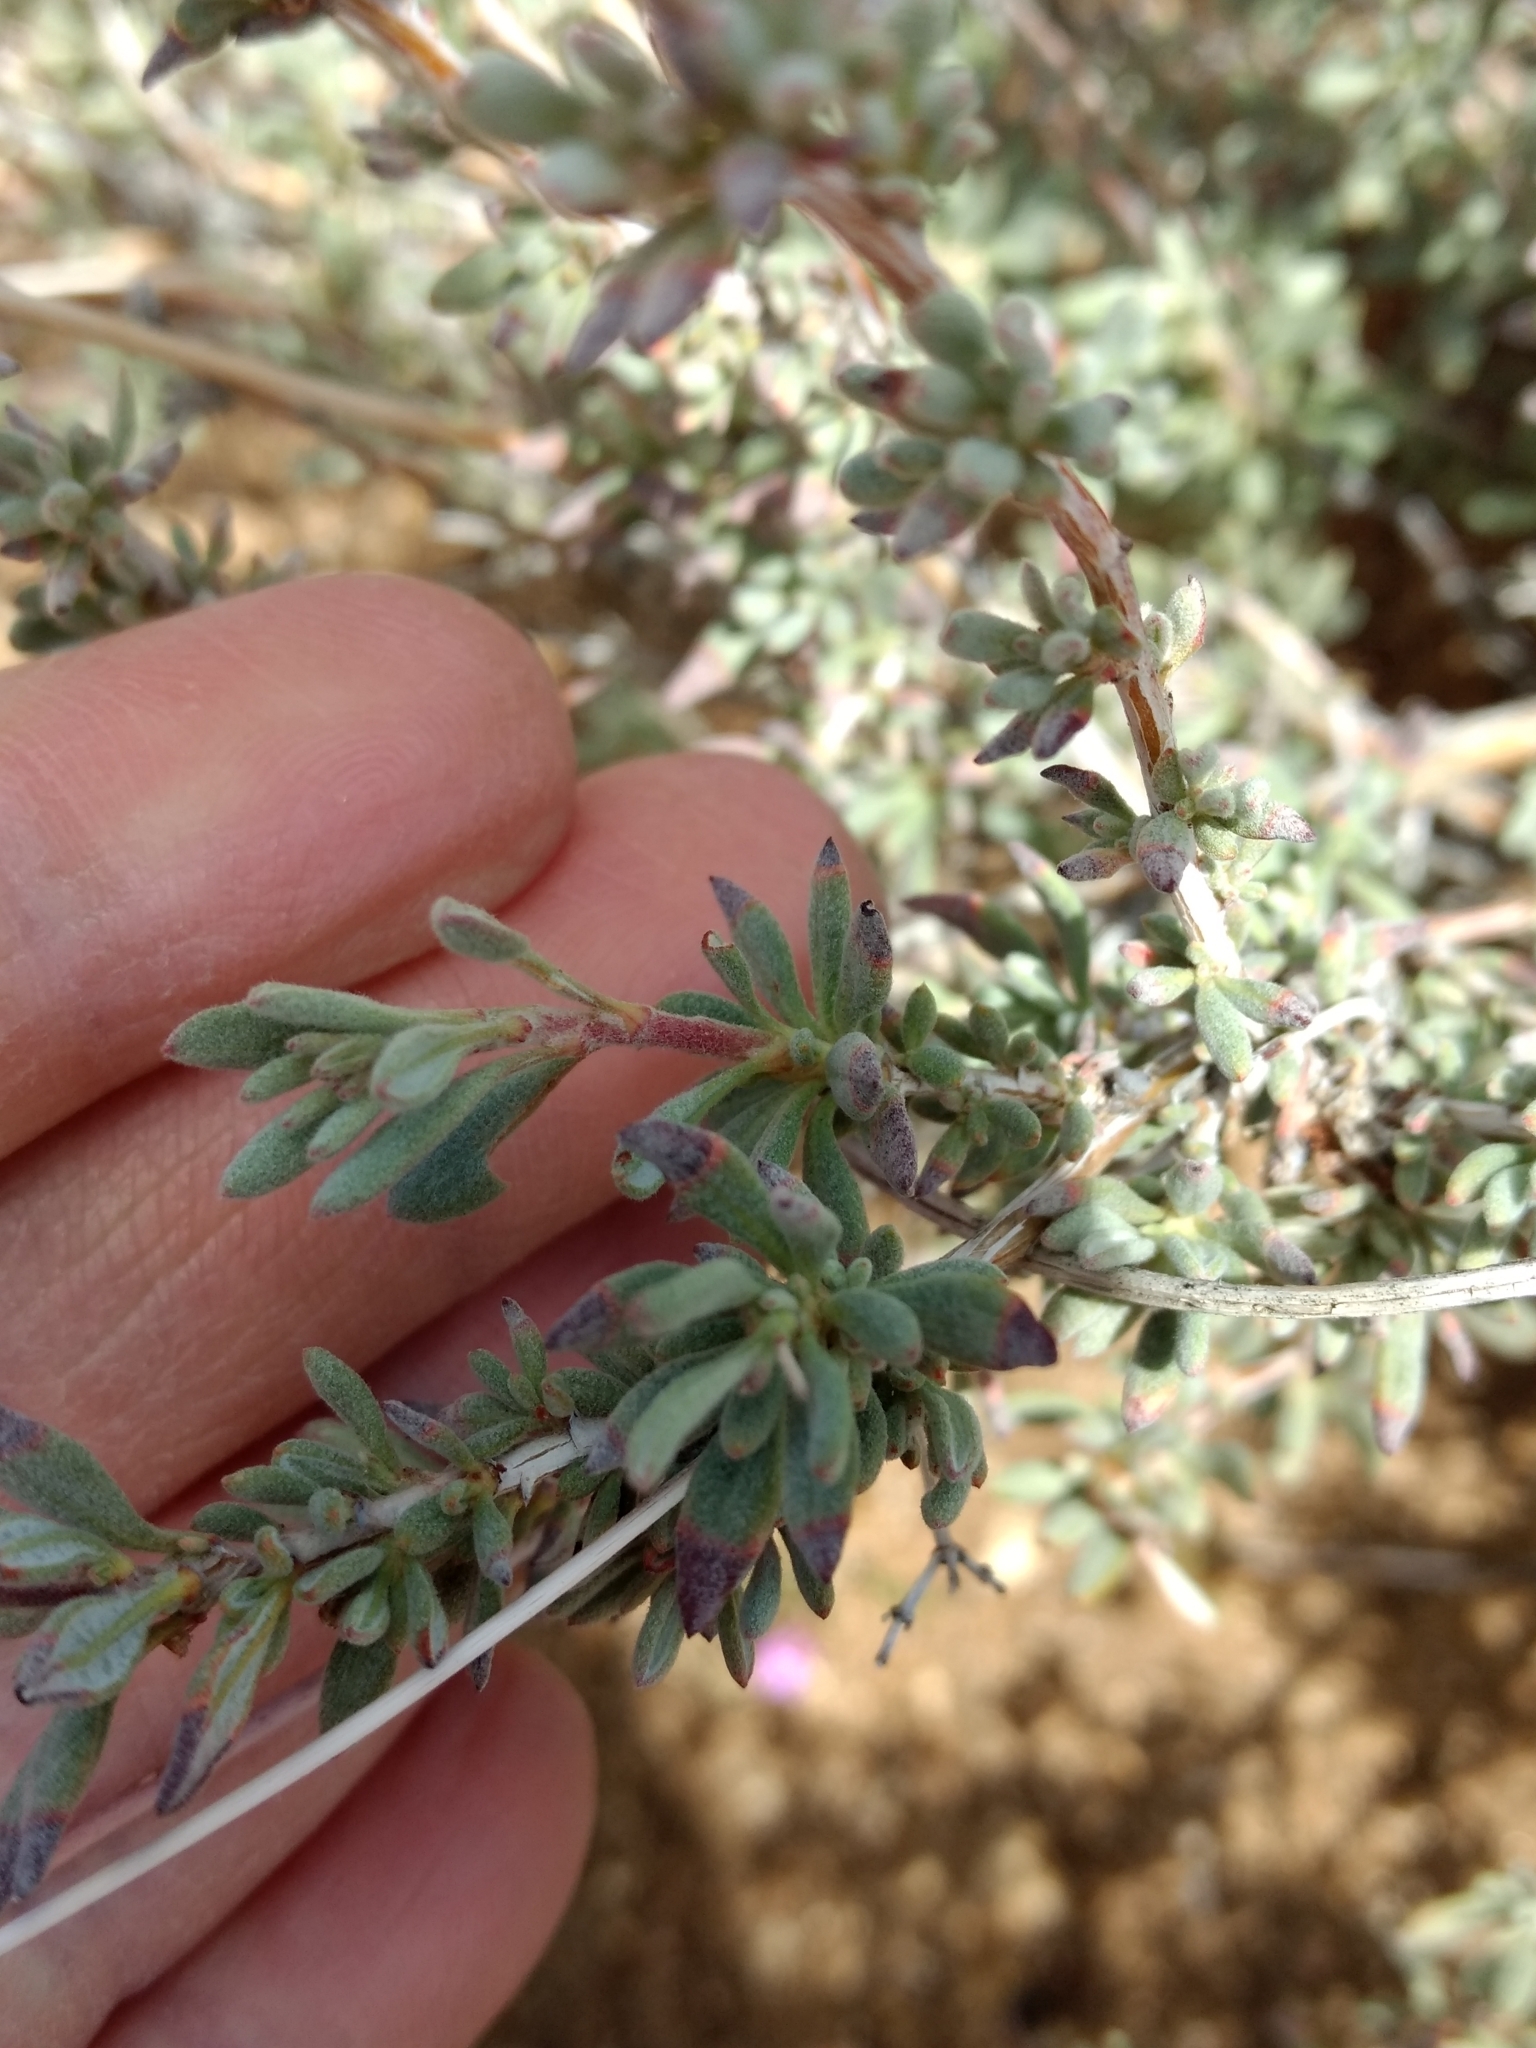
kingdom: Plantae
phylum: Tracheophyta
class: Magnoliopsida
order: Caryophyllales
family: Polygonaceae
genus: Eriogonum
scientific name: Eriogonum fasciculatum
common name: California wild buckwheat
